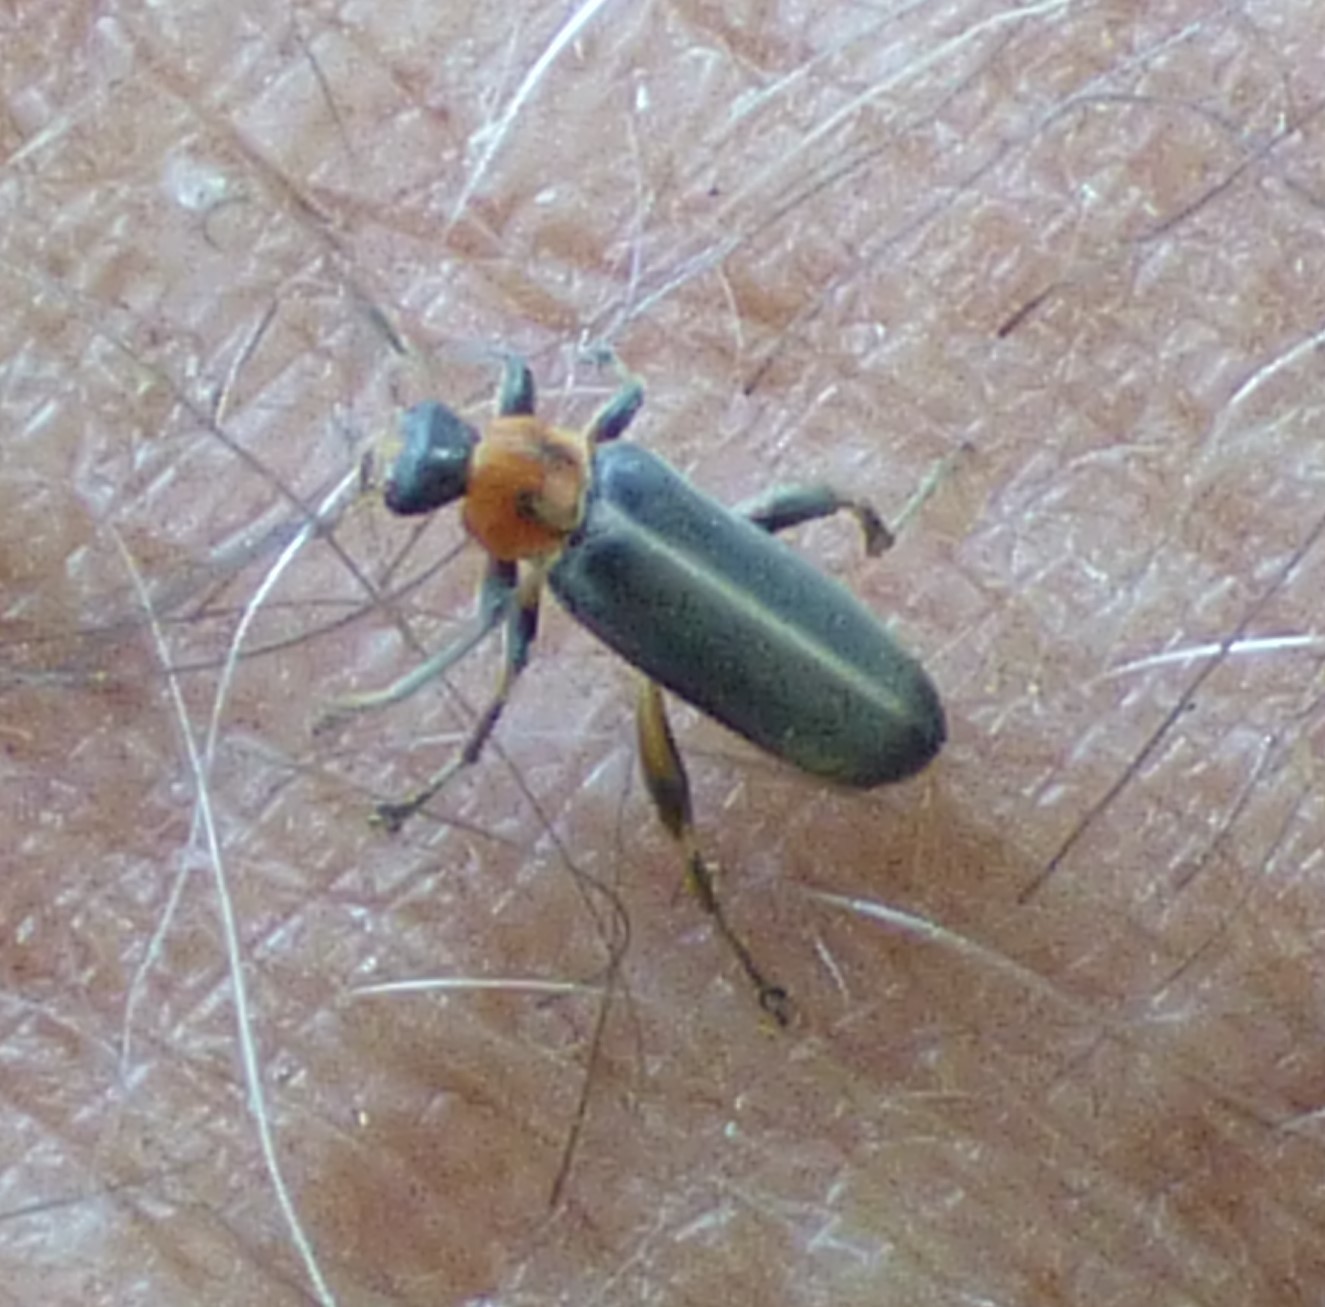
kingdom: Animalia
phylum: Arthropoda
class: Insecta
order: Coleoptera
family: Melandryidae
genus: Osphya
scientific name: Osphya varians
